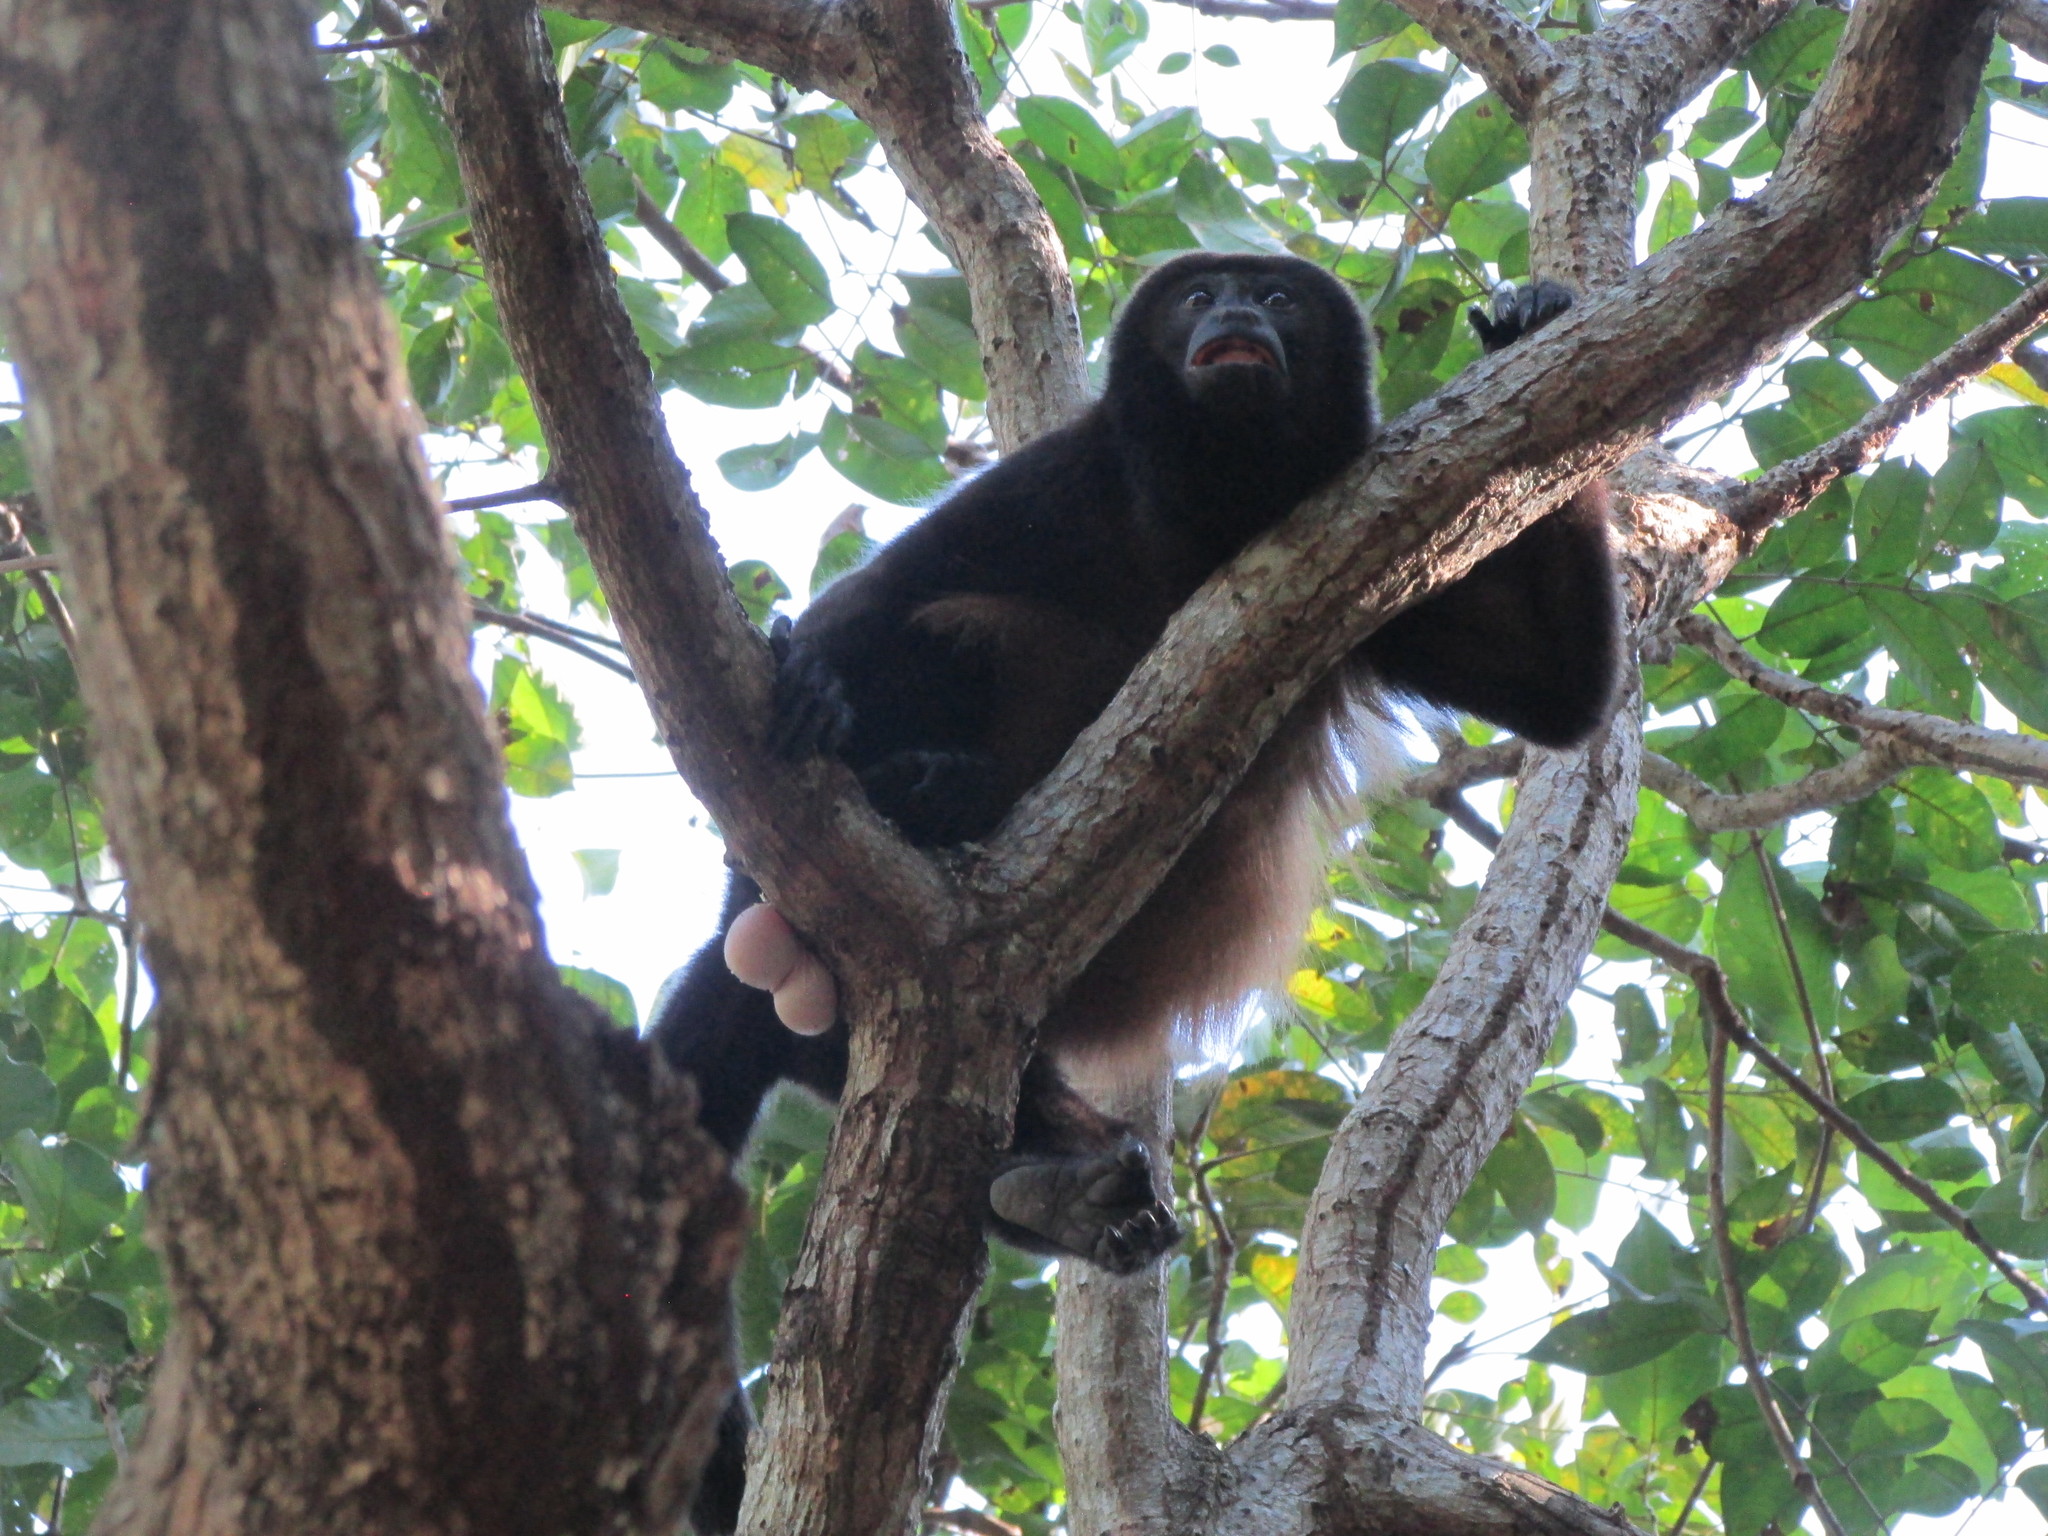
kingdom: Animalia
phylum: Chordata
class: Mammalia
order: Primates
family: Atelidae
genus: Alouatta
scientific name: Alouatta palliata
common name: Mantled howler
